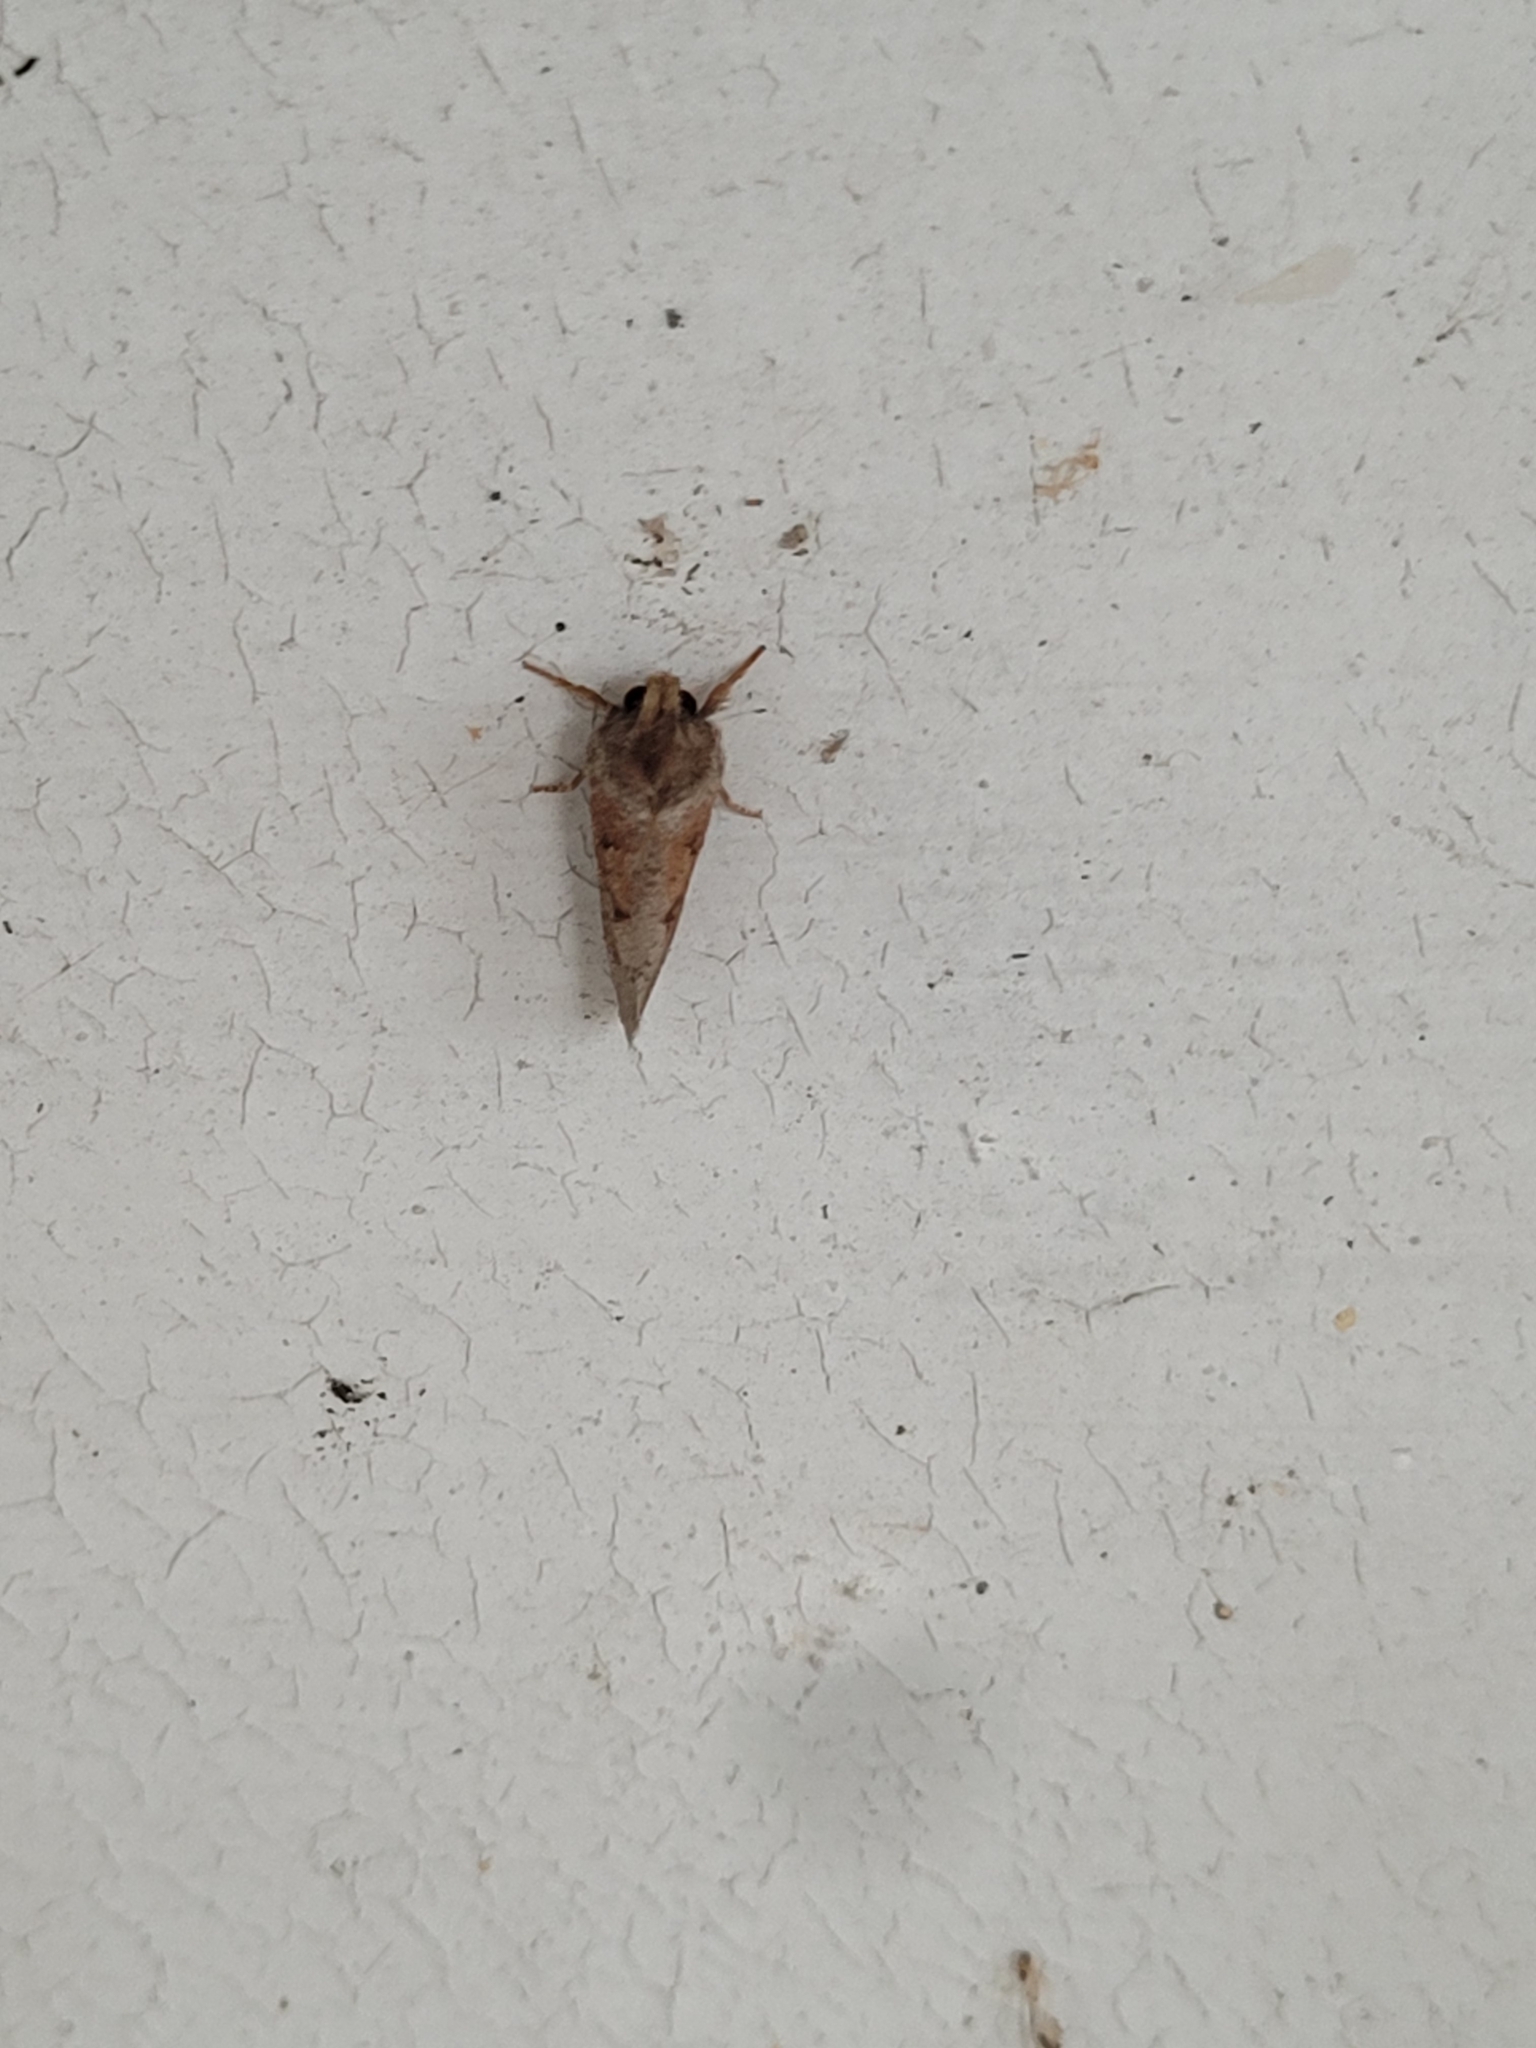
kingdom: Animalia
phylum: Arthropoda
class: Insecta
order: Lepidoptera
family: Tineidae
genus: Acrolophus
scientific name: Acrolophus plumifrontella
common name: Eastern grass tubeworm moth
